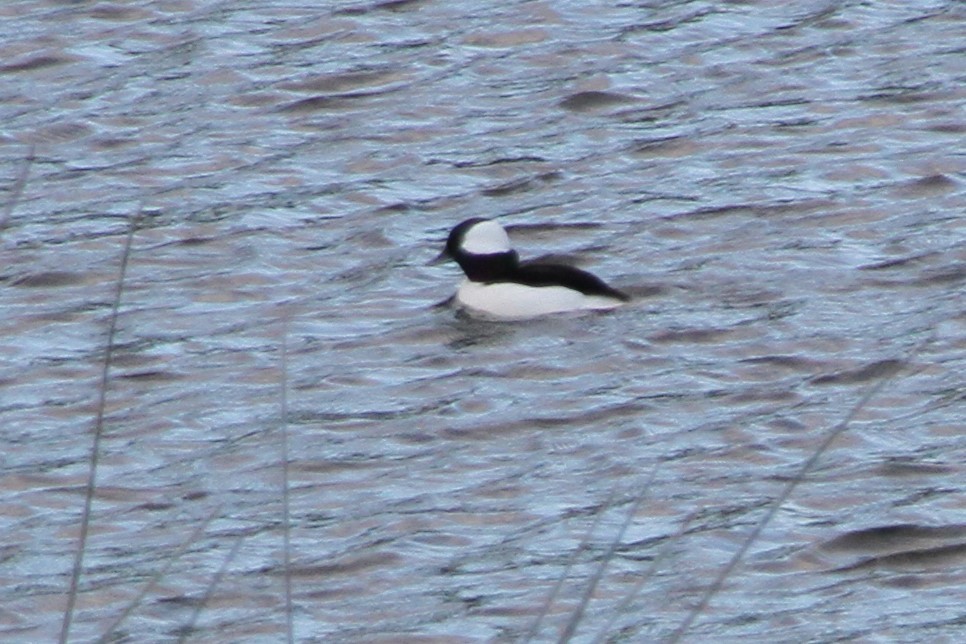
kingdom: Animalia
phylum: Chordata
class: Aves
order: Anseriformes
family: Anatidae
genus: Bucephala
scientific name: Bucephala albeola
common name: Bufflehead
